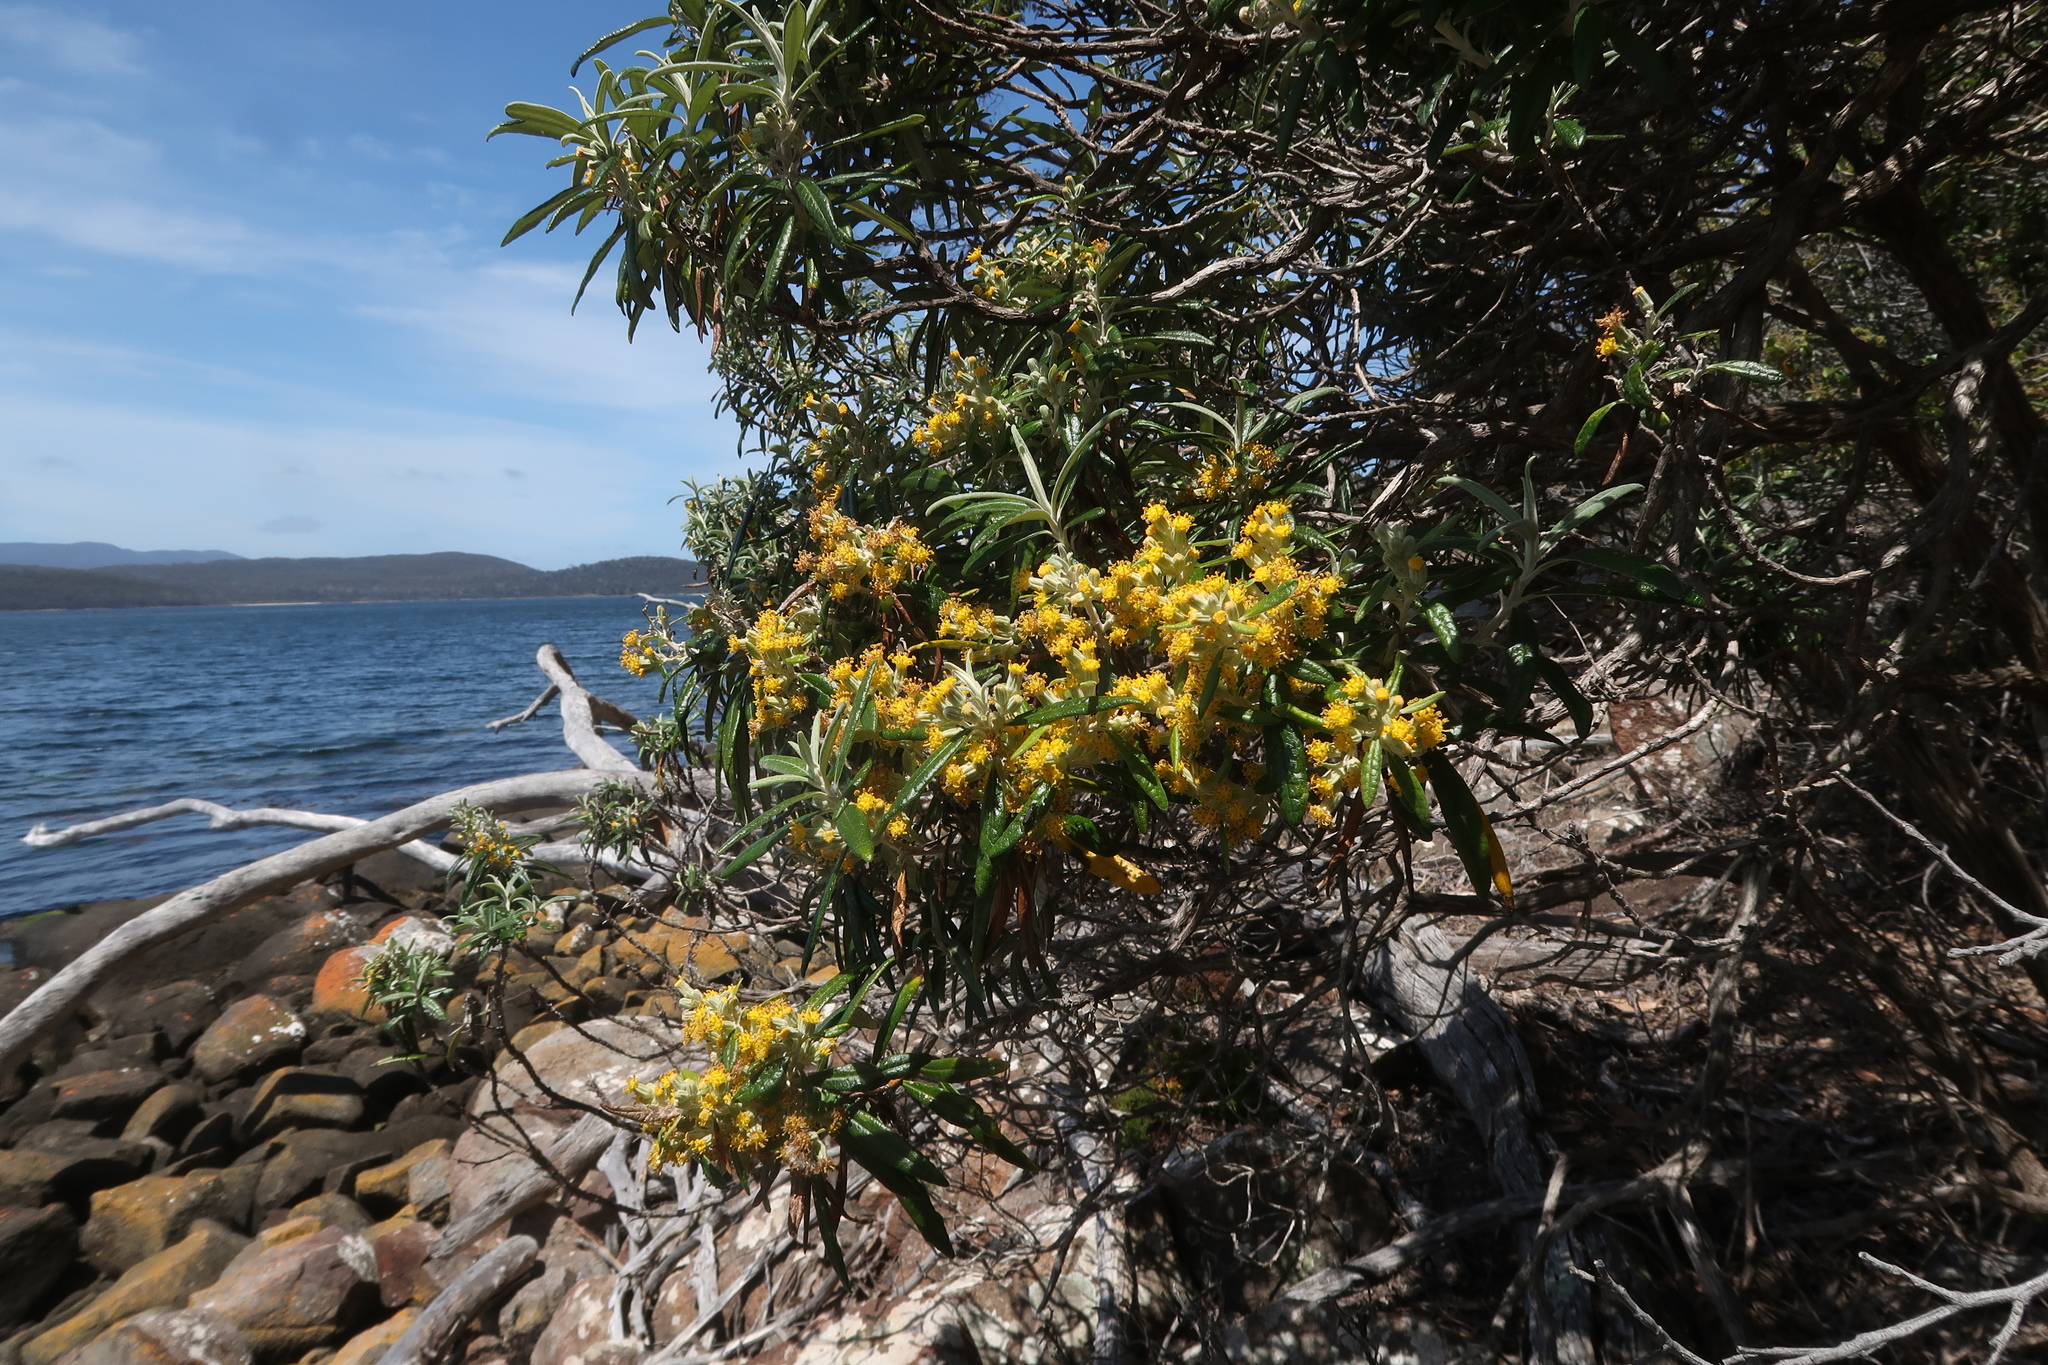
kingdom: Plantae
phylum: Tracheophyta
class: Magnoliopsida
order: Asterales
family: Asteraceae
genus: Bedfordia
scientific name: Bedfordia salicina
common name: Blanketleaf
